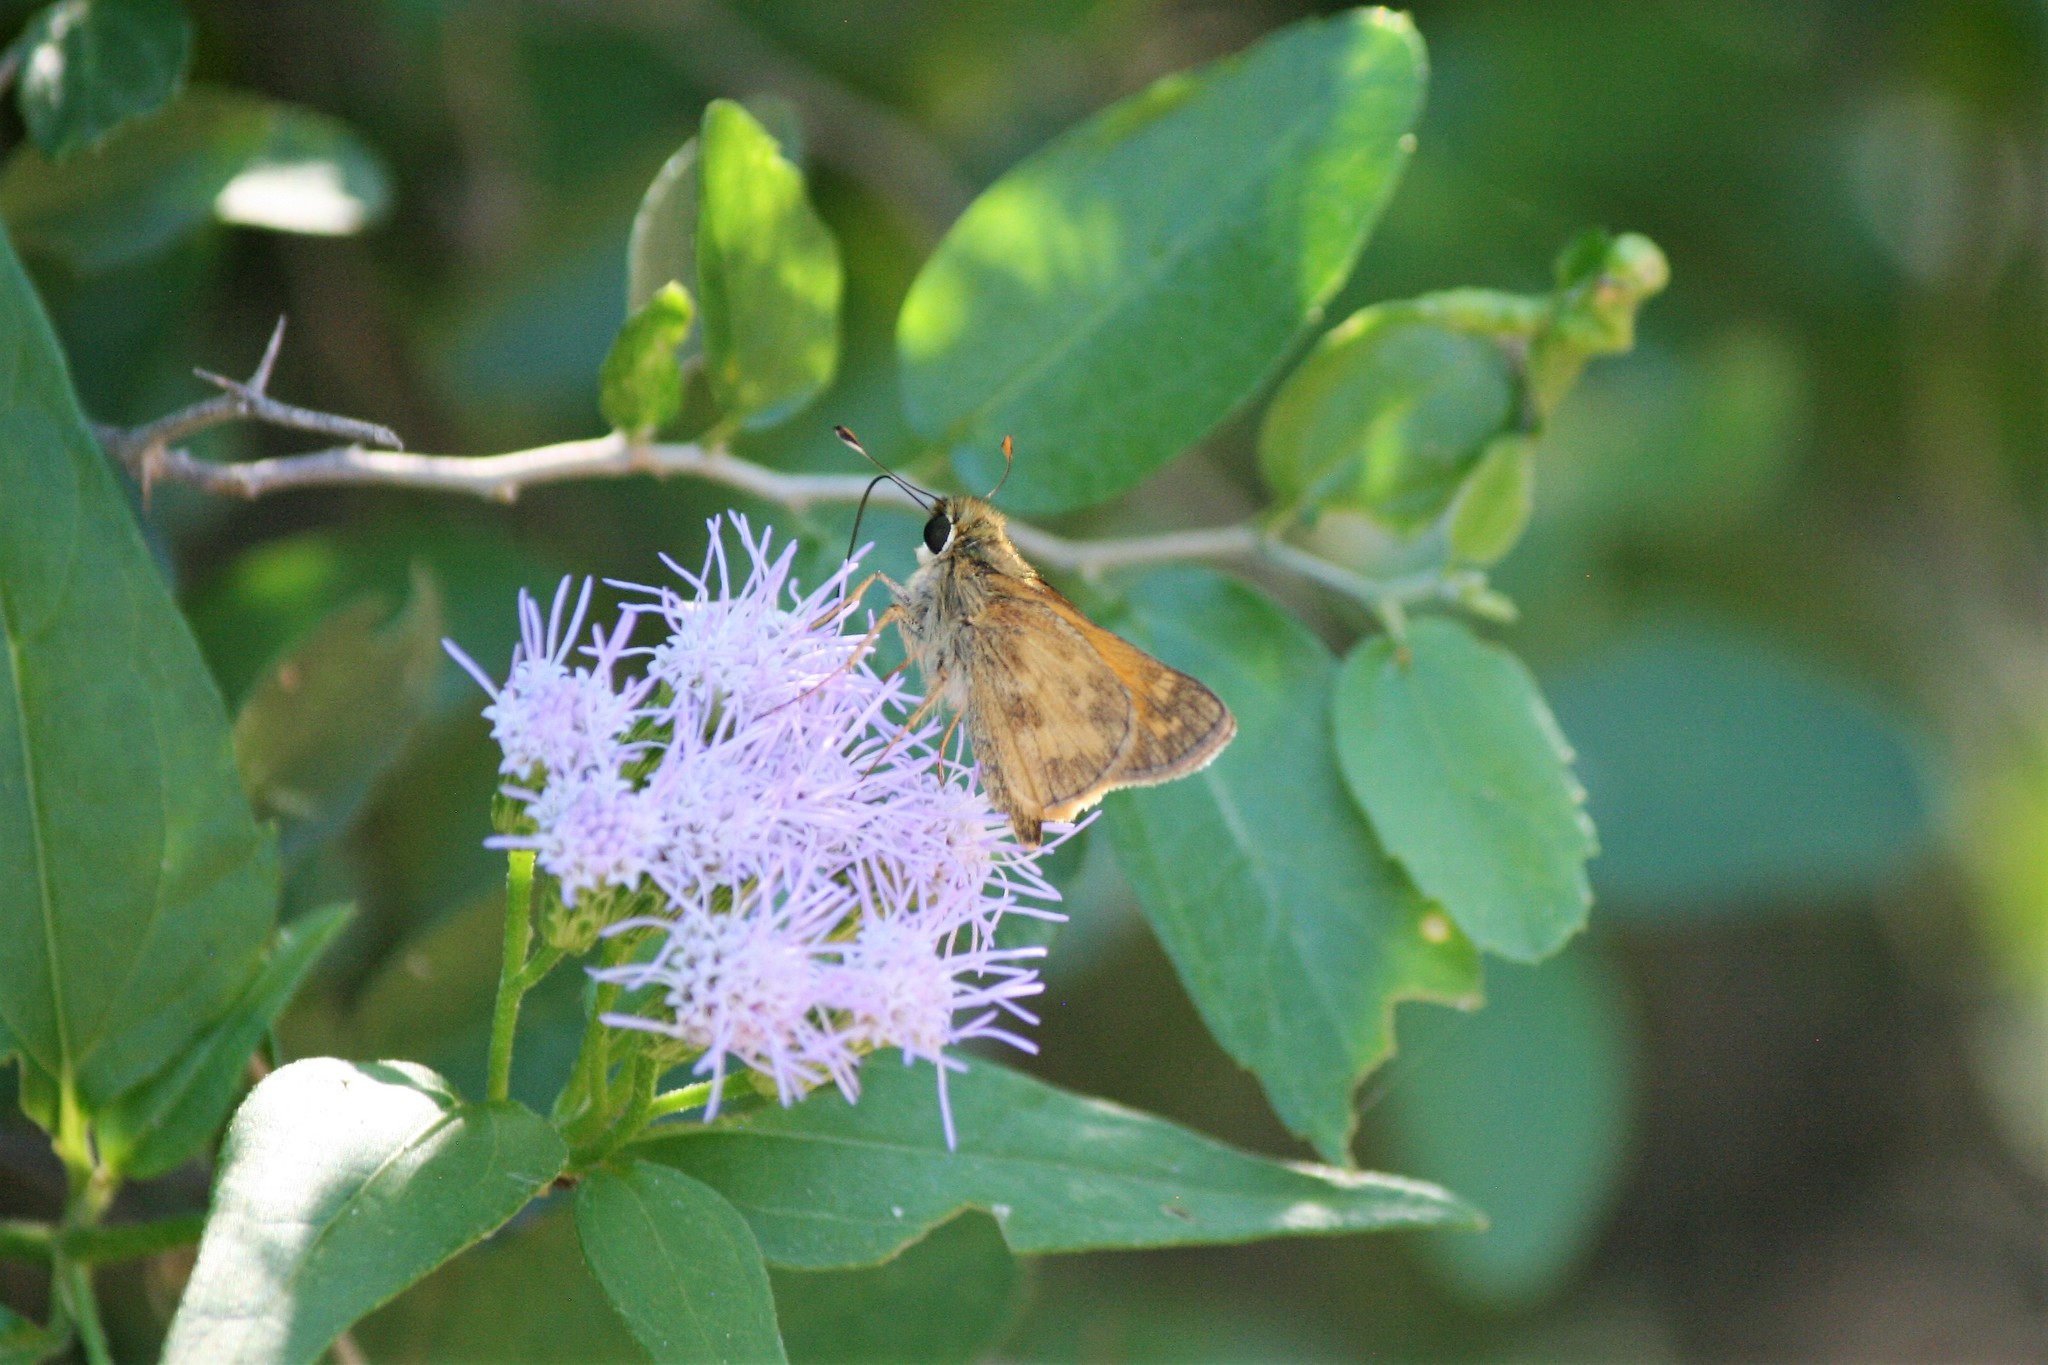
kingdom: Animalia
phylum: Arthropoda
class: Insecta
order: Lepidoptera
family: Hesperiidae
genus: Atalopedes
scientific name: Atalopedes
